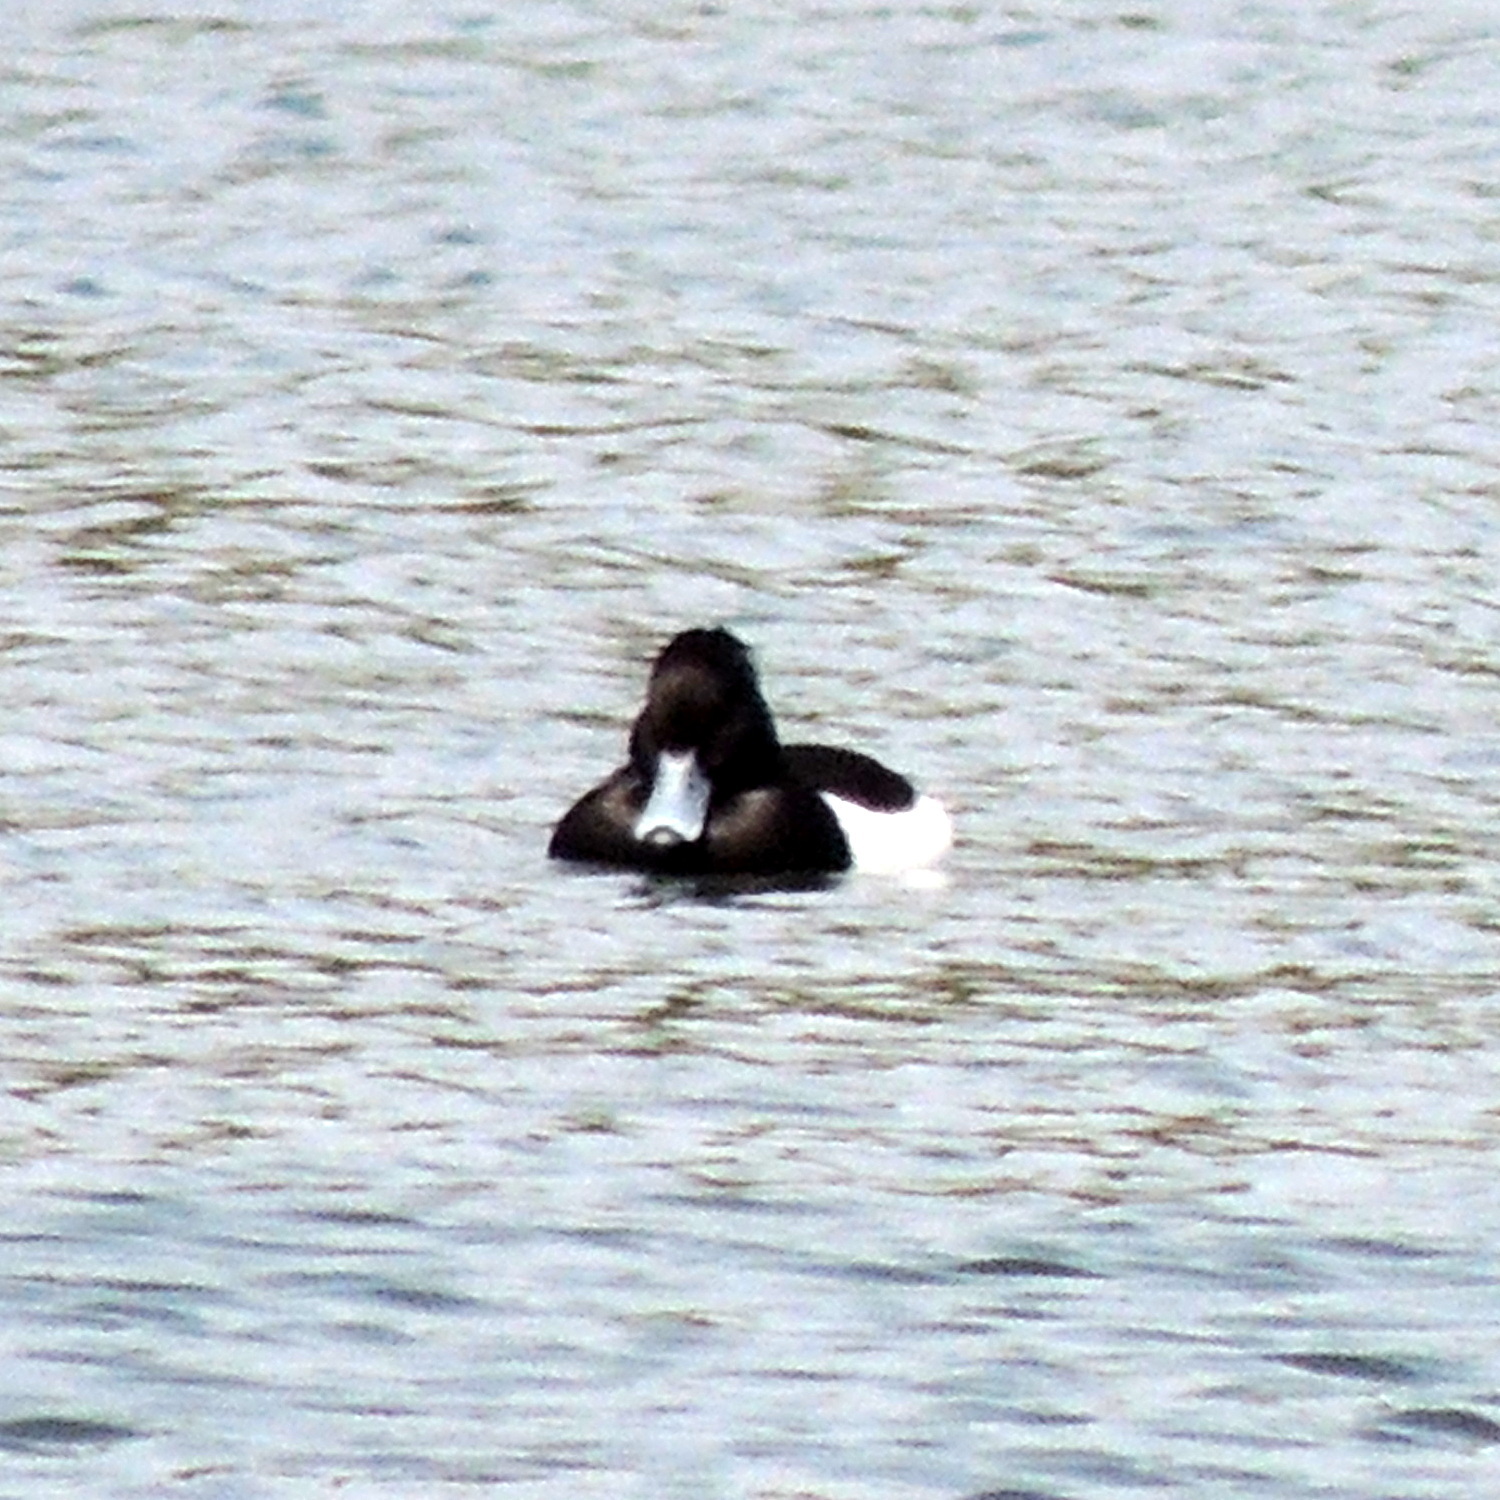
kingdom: Animalia
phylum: Chordata
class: Aves
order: Anseriformes
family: Anatidae
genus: Aythya
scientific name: Aythya fuligula
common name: Tufted duck
